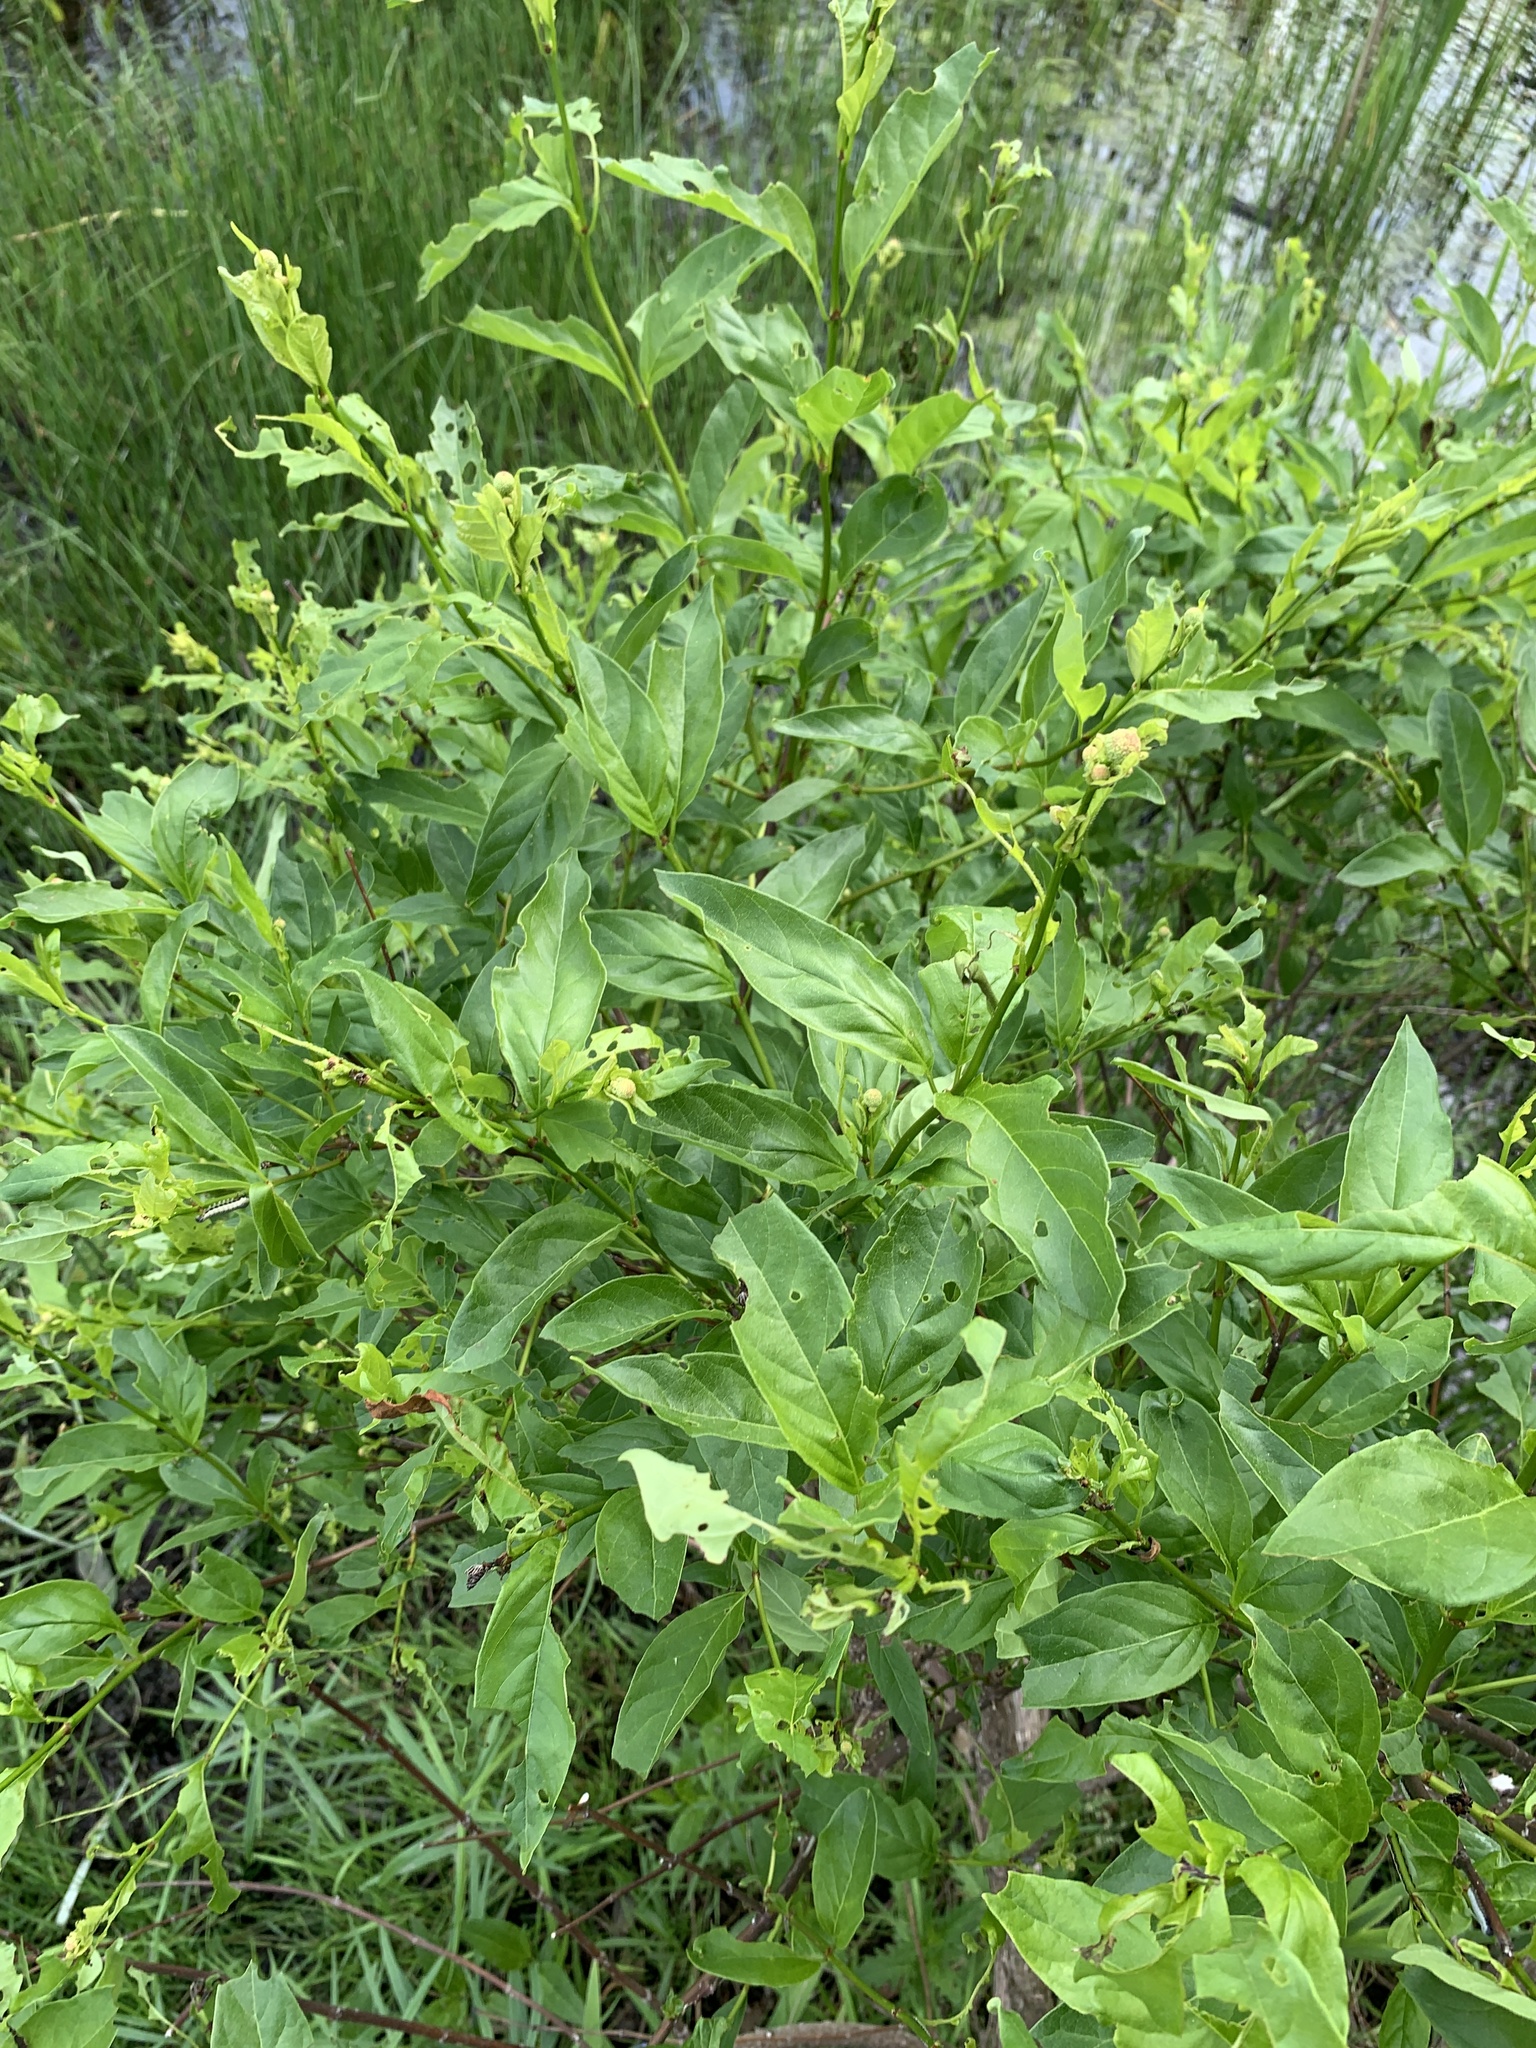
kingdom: Plantae
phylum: Tracheophyta
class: Magnoliopsida
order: Gentianales
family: Rubiaceae
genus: Cephalanthus
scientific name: Cephalanthus occidentalis
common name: Button-willow
